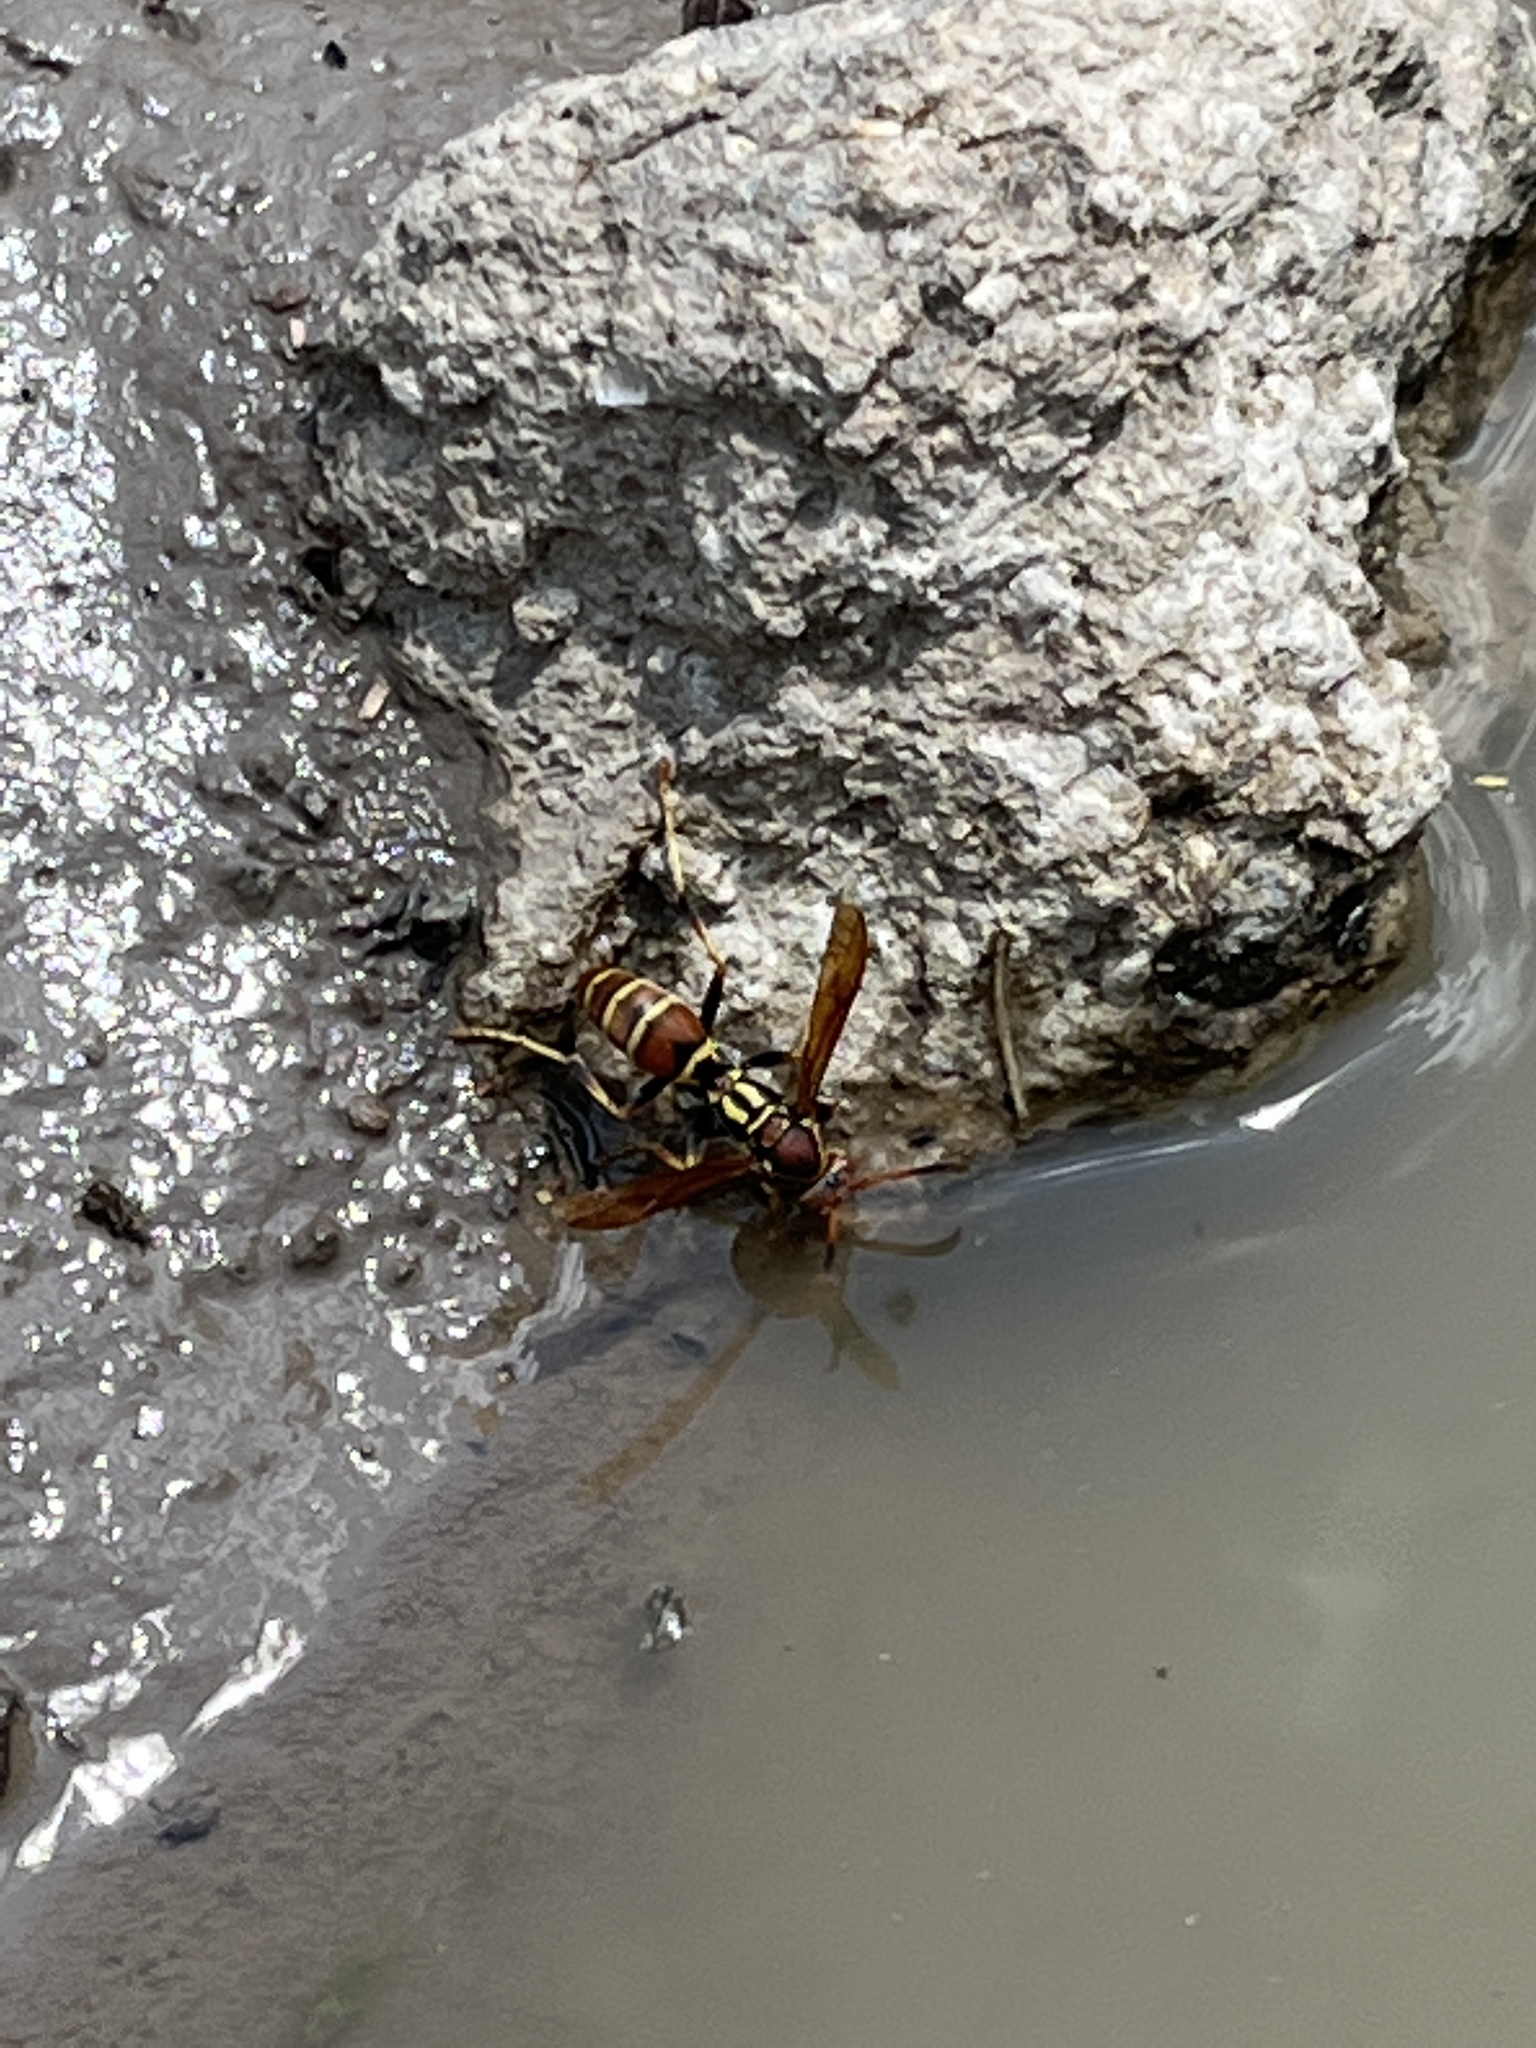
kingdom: Animalia
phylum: Arthropoda
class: Insecta
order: Hymenoptera
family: Eumenidae
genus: Polistes
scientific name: Polistes dorsalis
